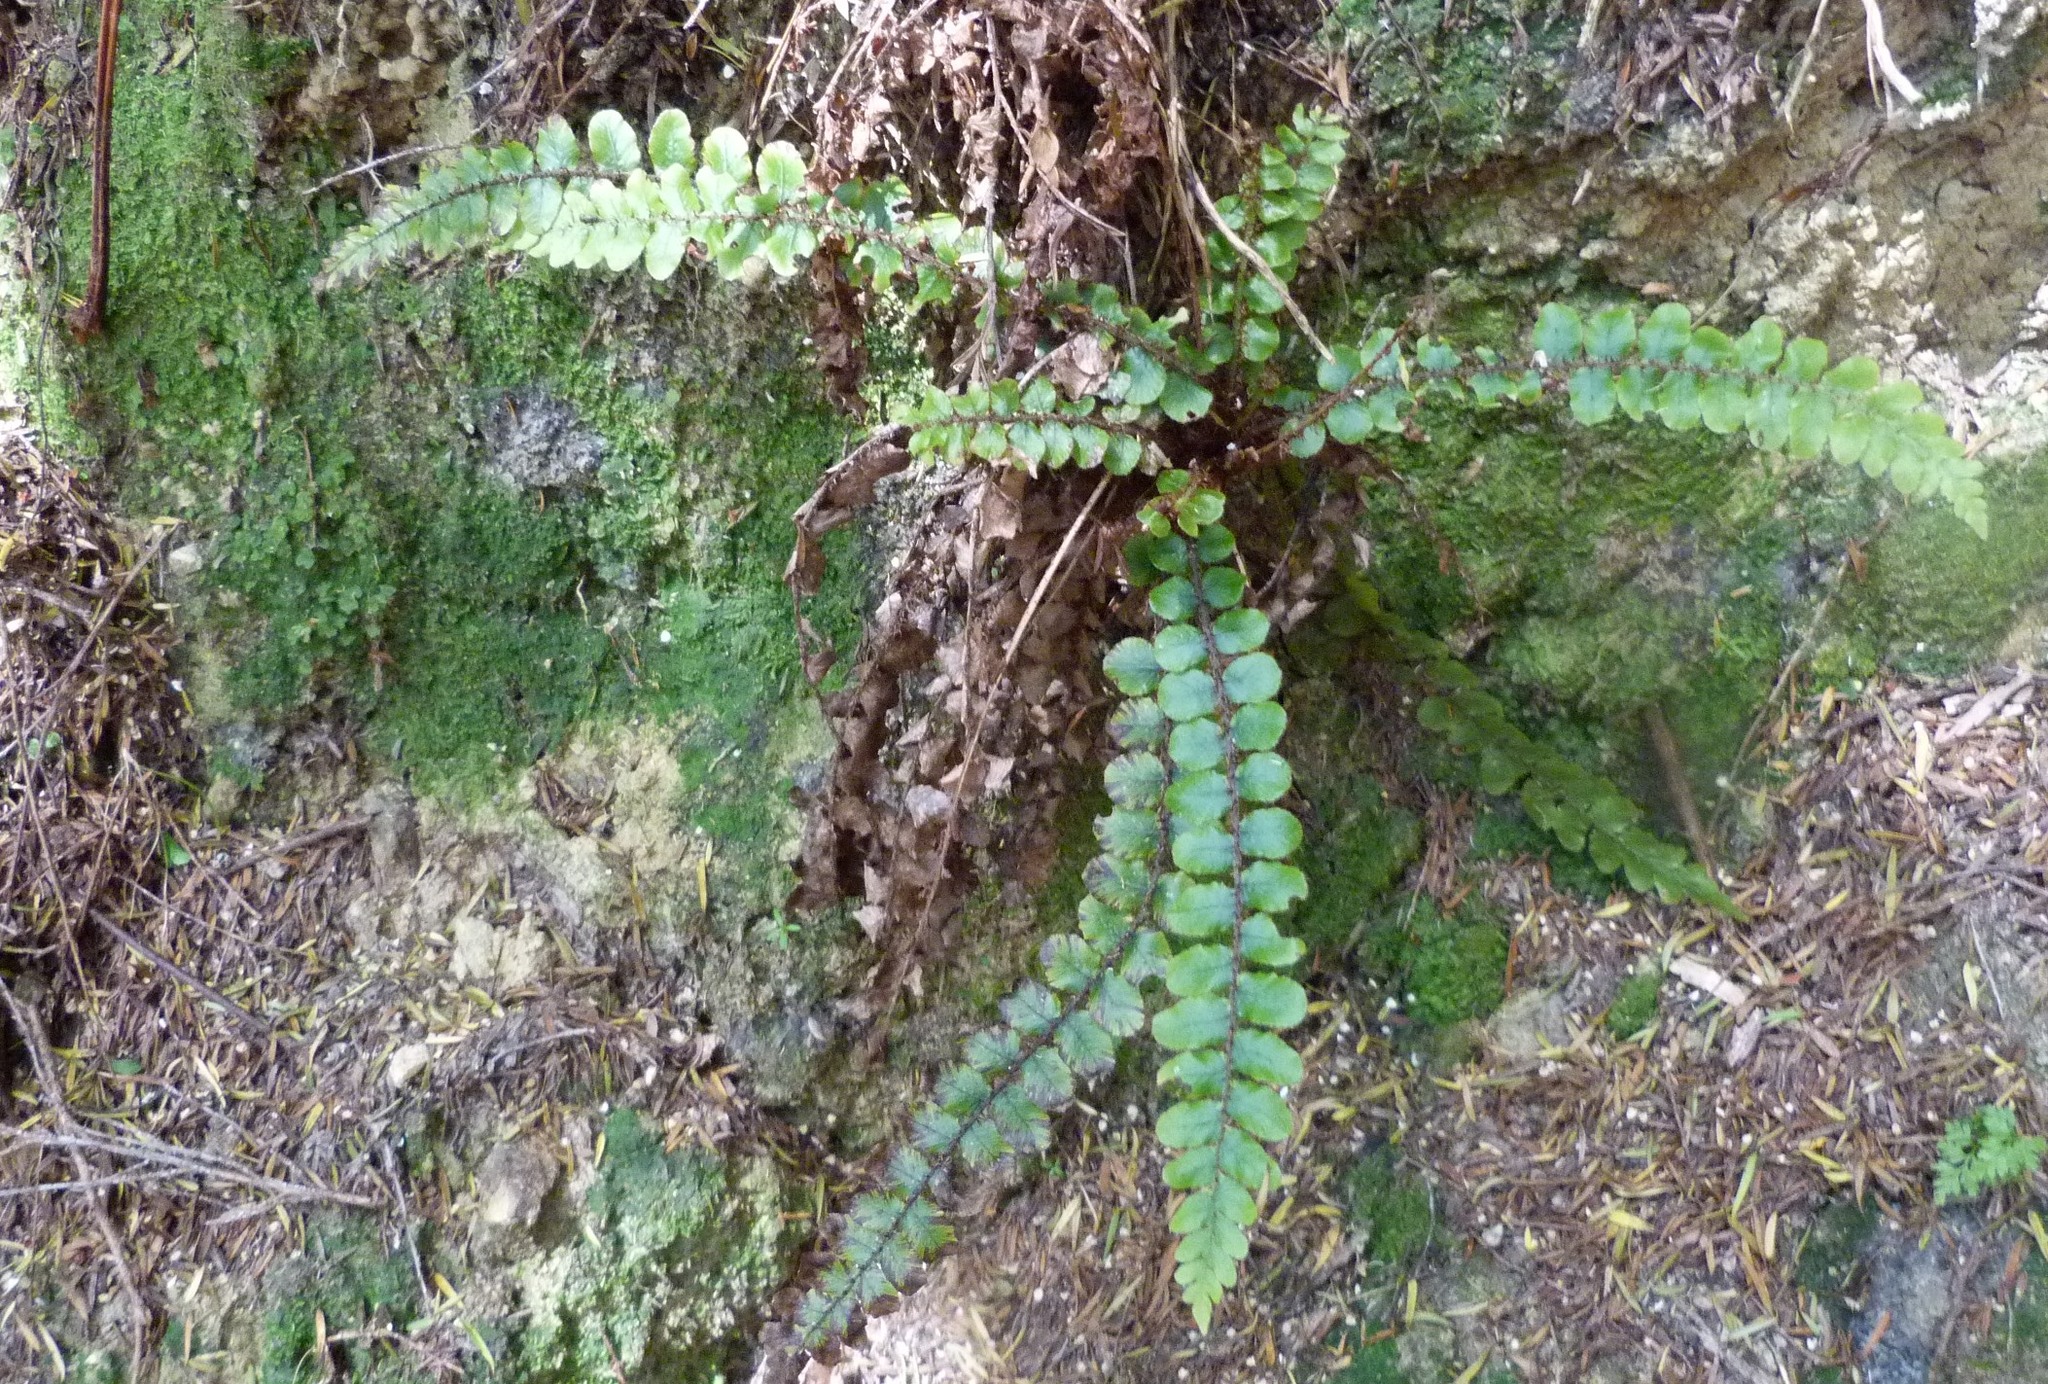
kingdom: Plantae
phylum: Tracheophyta
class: Polypodiopsida
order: Polypodiales
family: Blechnaceae
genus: Cranfillia
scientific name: Cranfillia fluviatilis
